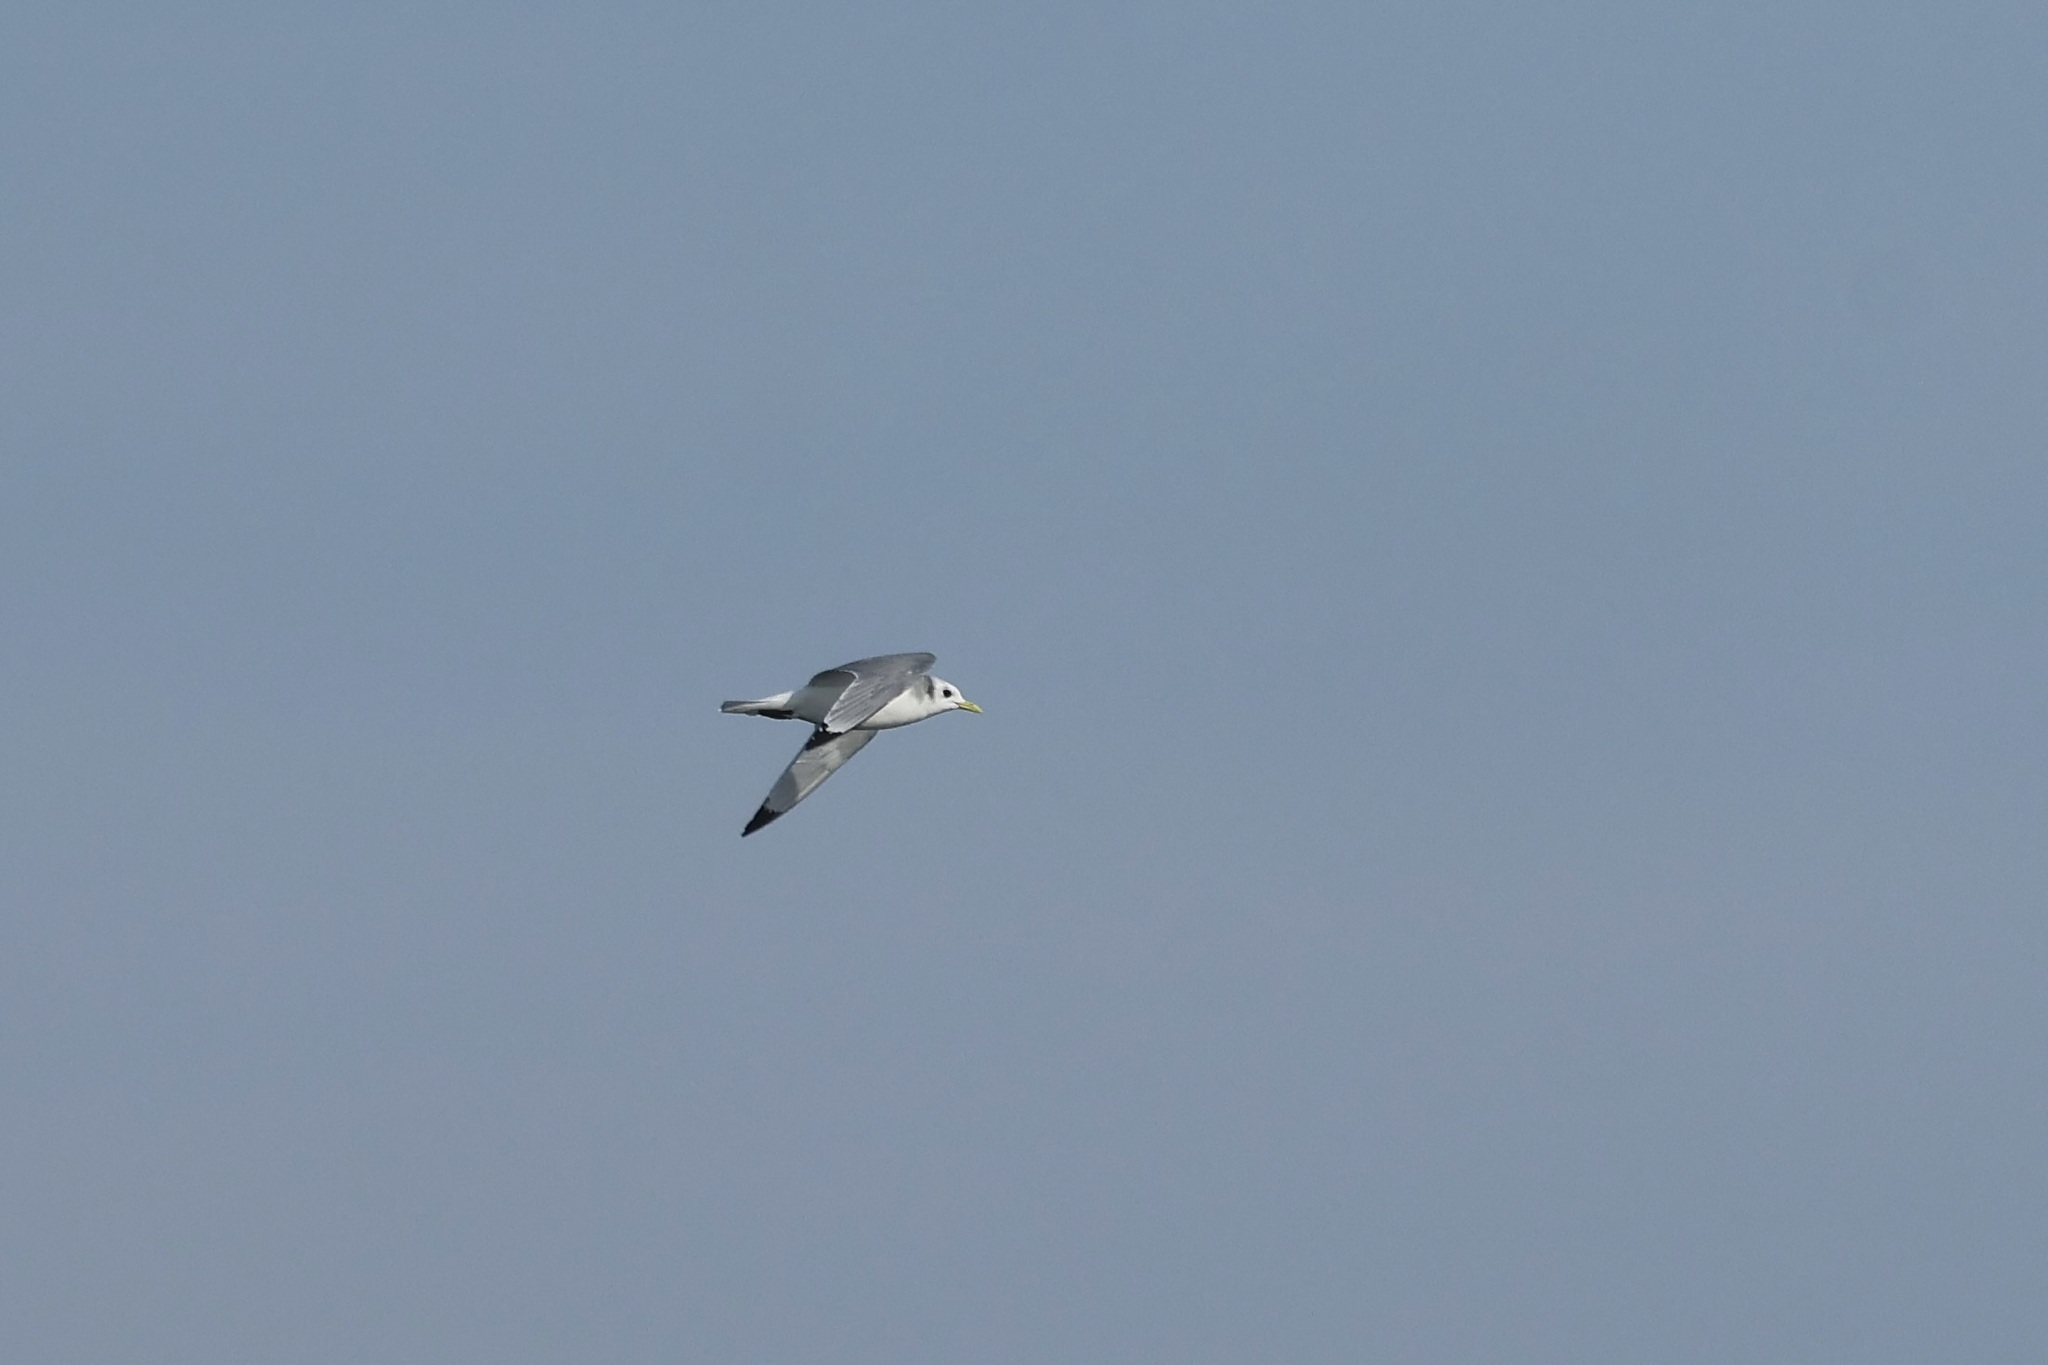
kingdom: Animalia
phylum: Chordata
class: Aves
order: Charadriiformes
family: Laridae
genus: Rissa
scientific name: Rissa tridactyla
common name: Black-legged kittiwake
